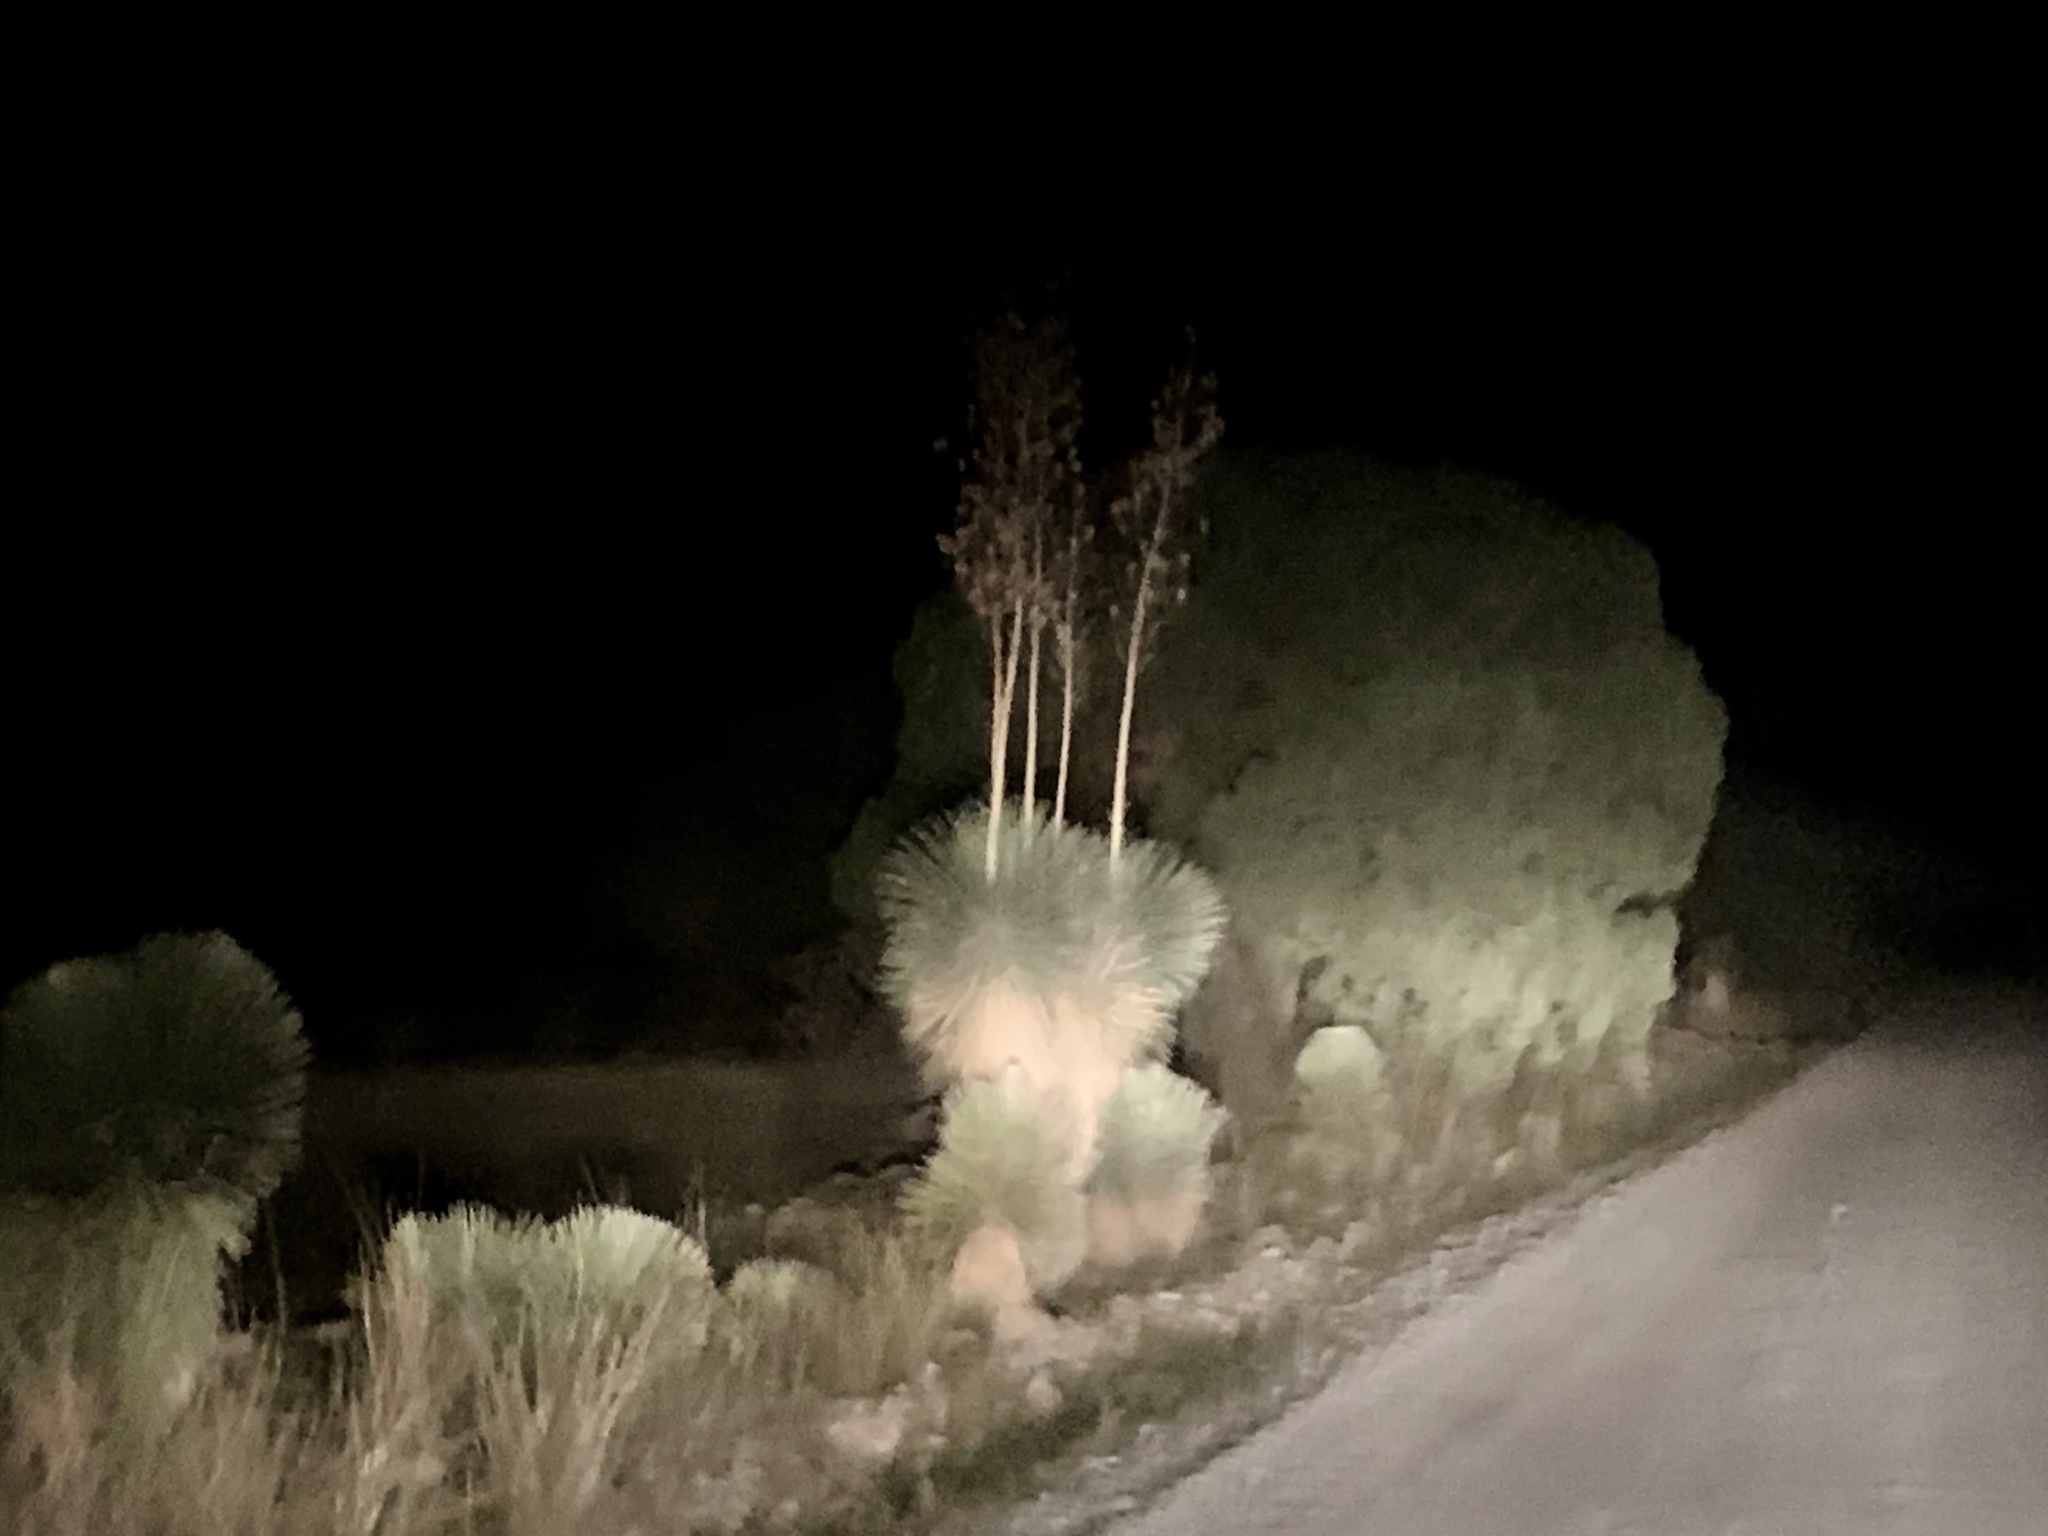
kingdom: Plantae
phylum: Tracheophyta
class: Liliopsida
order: Asparagales
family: Asparagaceae
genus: Yucca
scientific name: Yucca elata
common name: Palmella
